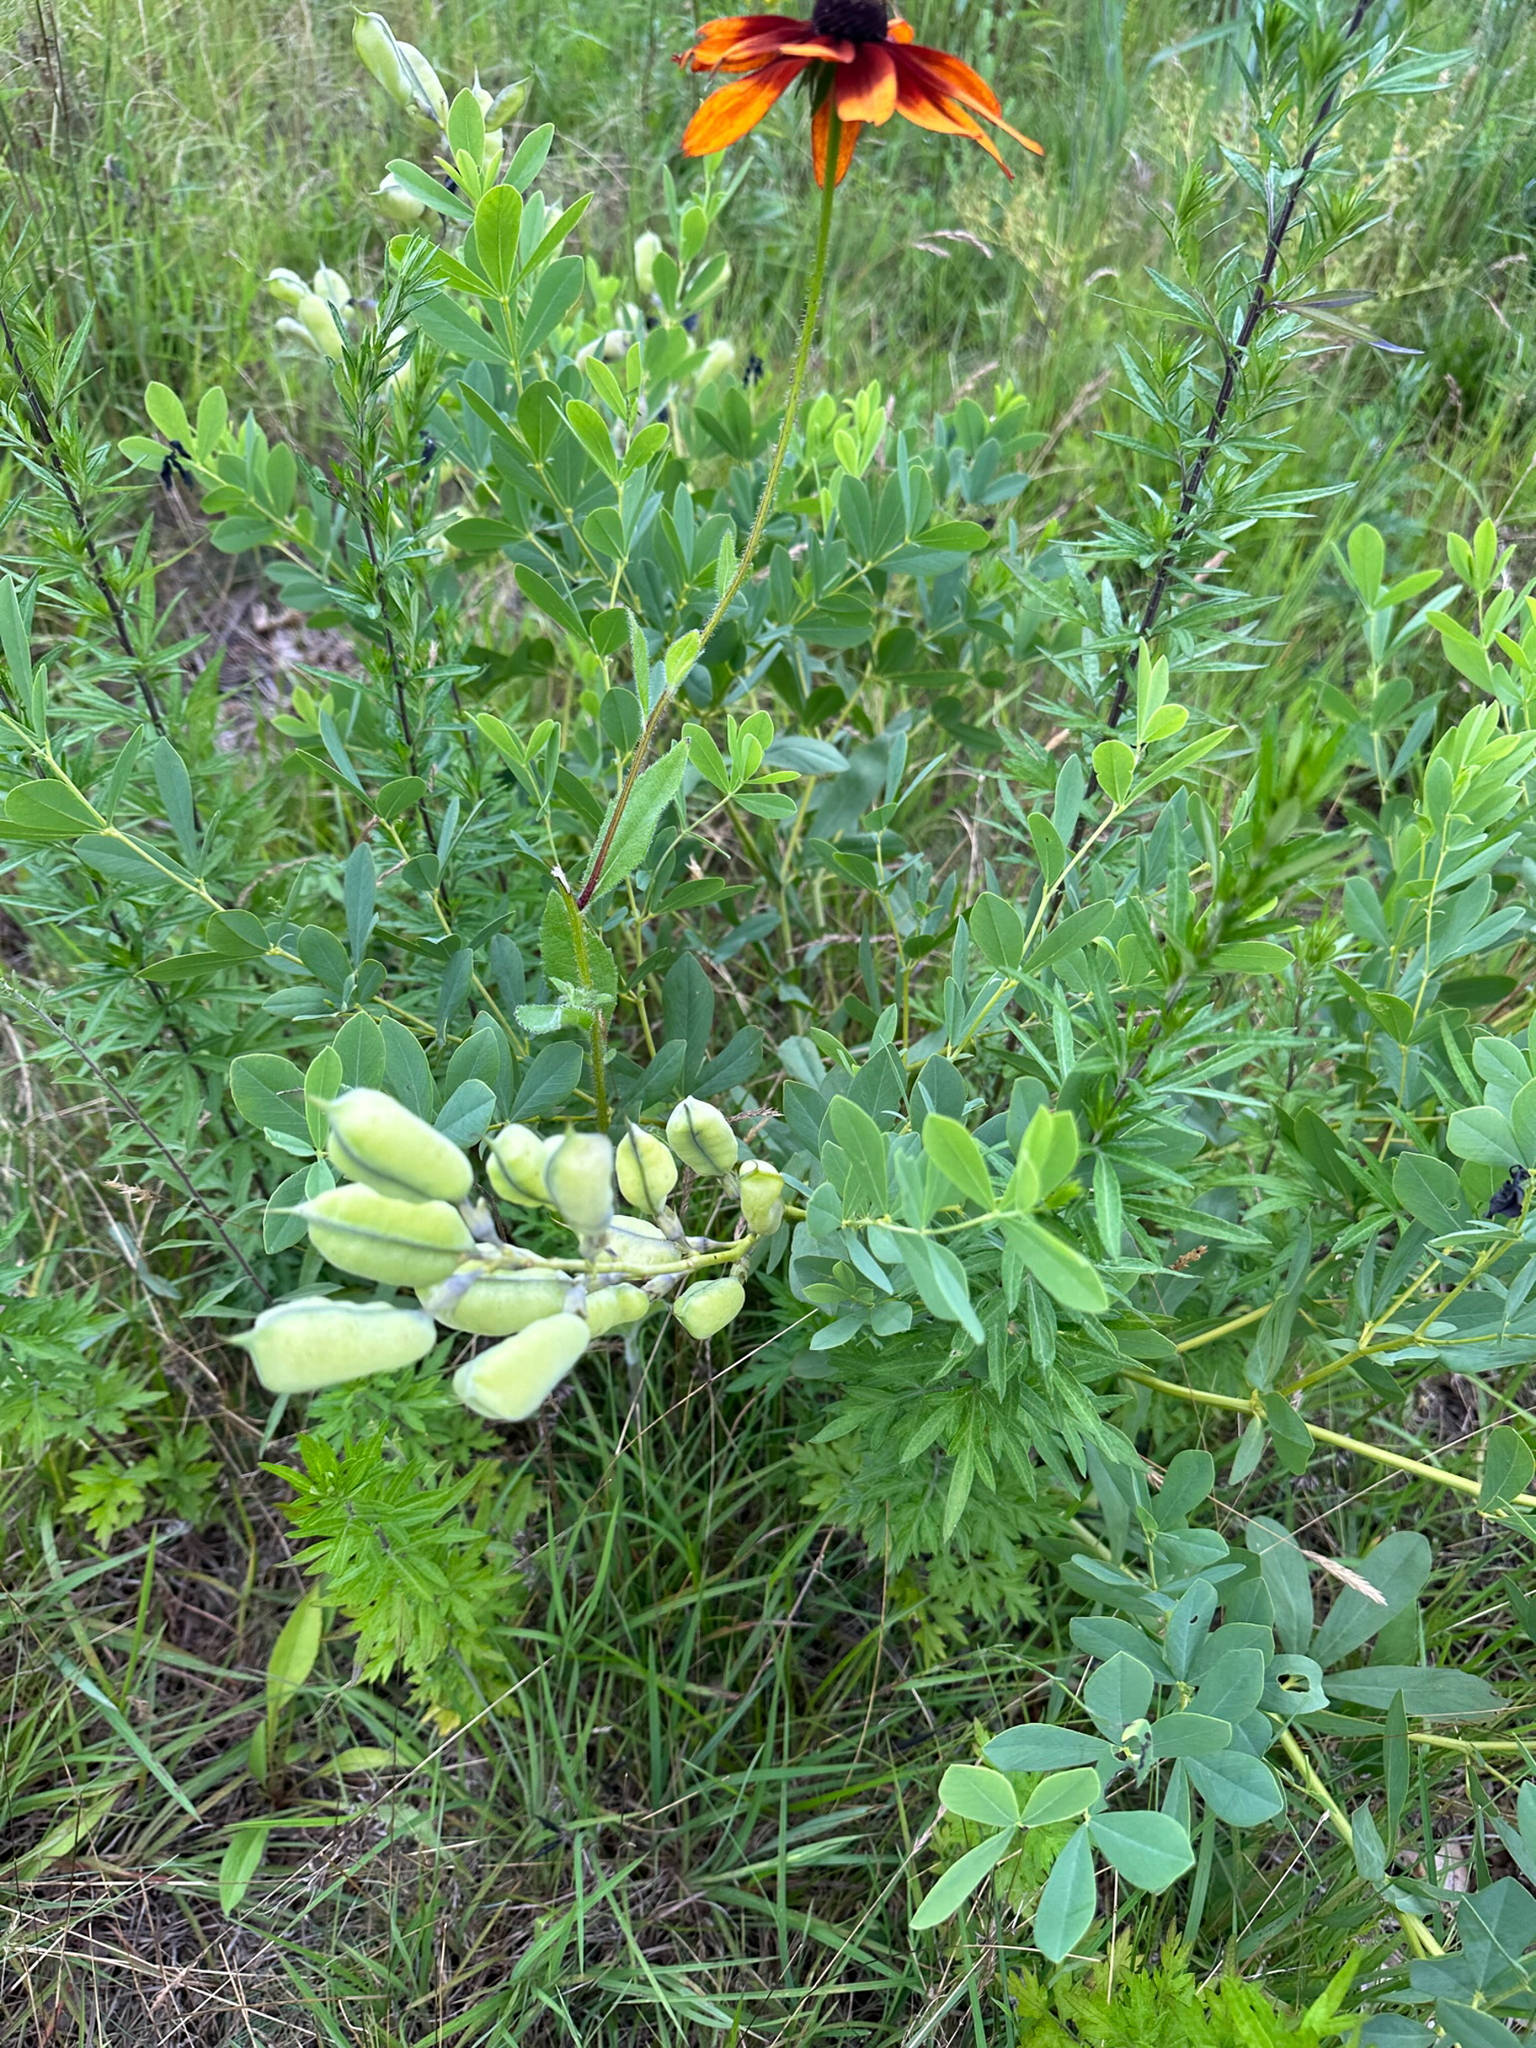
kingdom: Plantae
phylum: Tracheophyta
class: Magnoliopsida
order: Fabales
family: Fabaceae
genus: Baptisia
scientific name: Baptisia australis
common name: Blue false indigo
